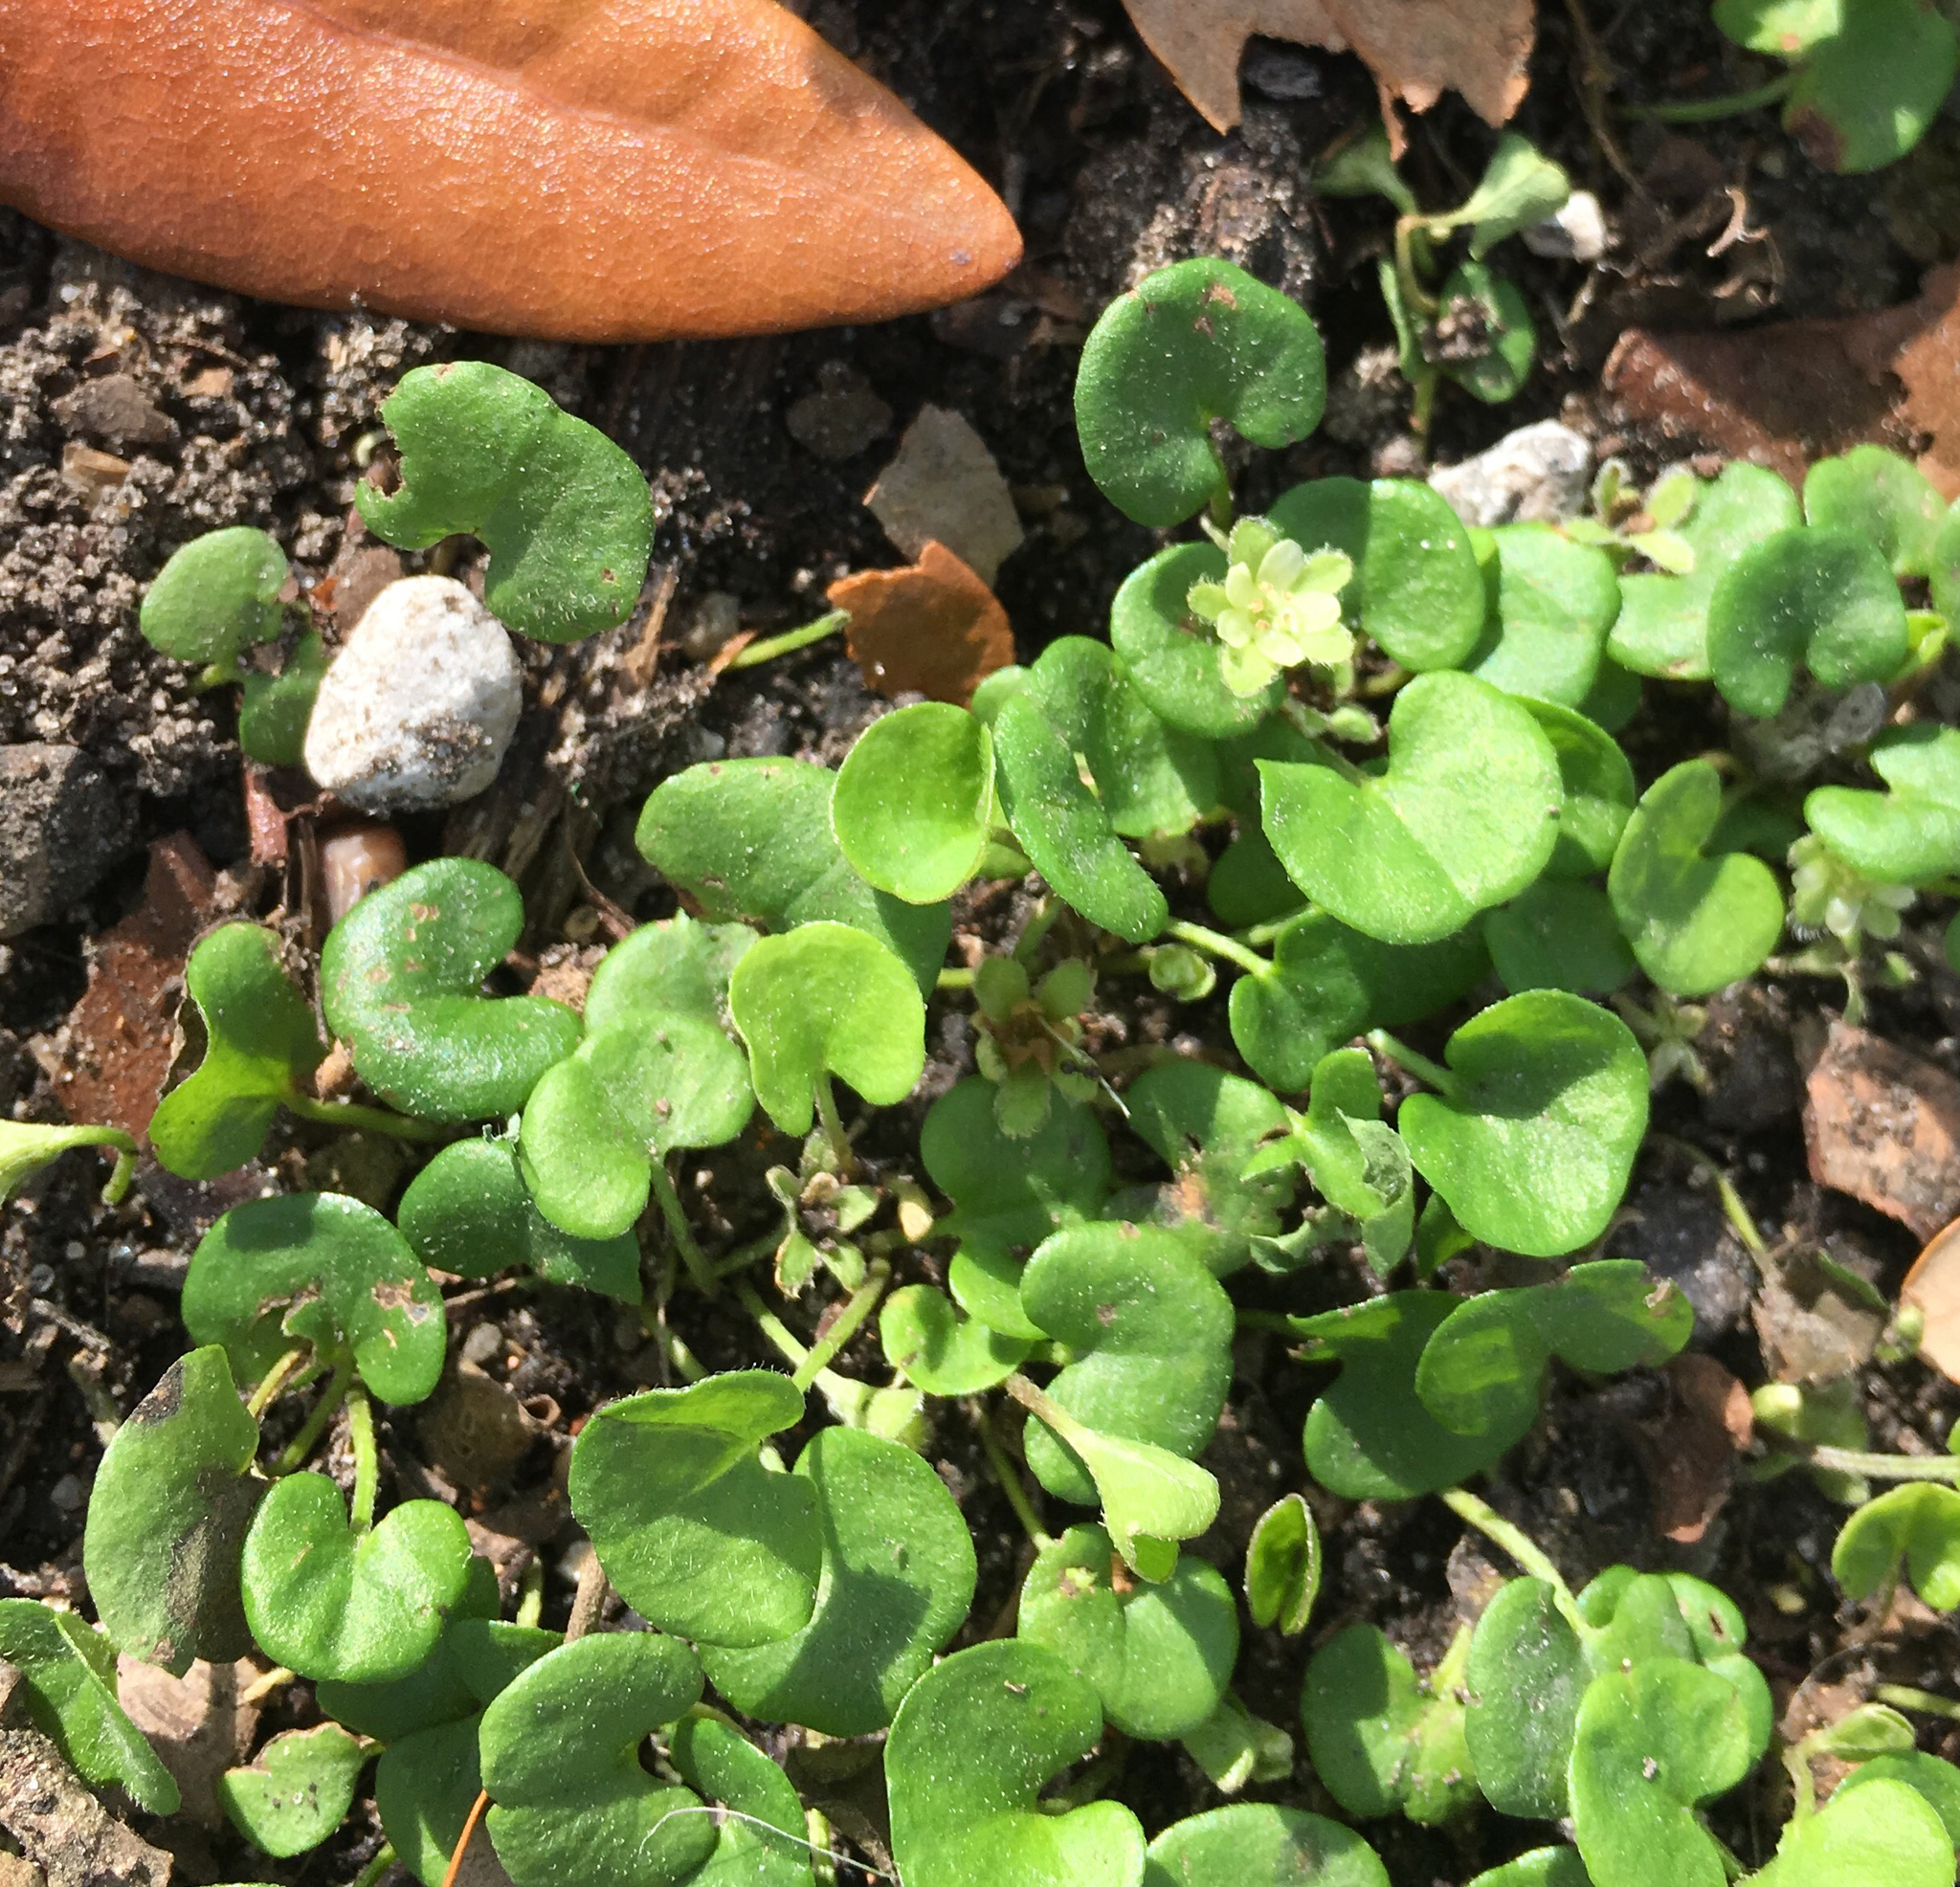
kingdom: Plantae
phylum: Tracheophyta
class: Magnoliopsida
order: Solanales
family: Convolvulaceae
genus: Dichondra
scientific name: Dichondra carolinensis
